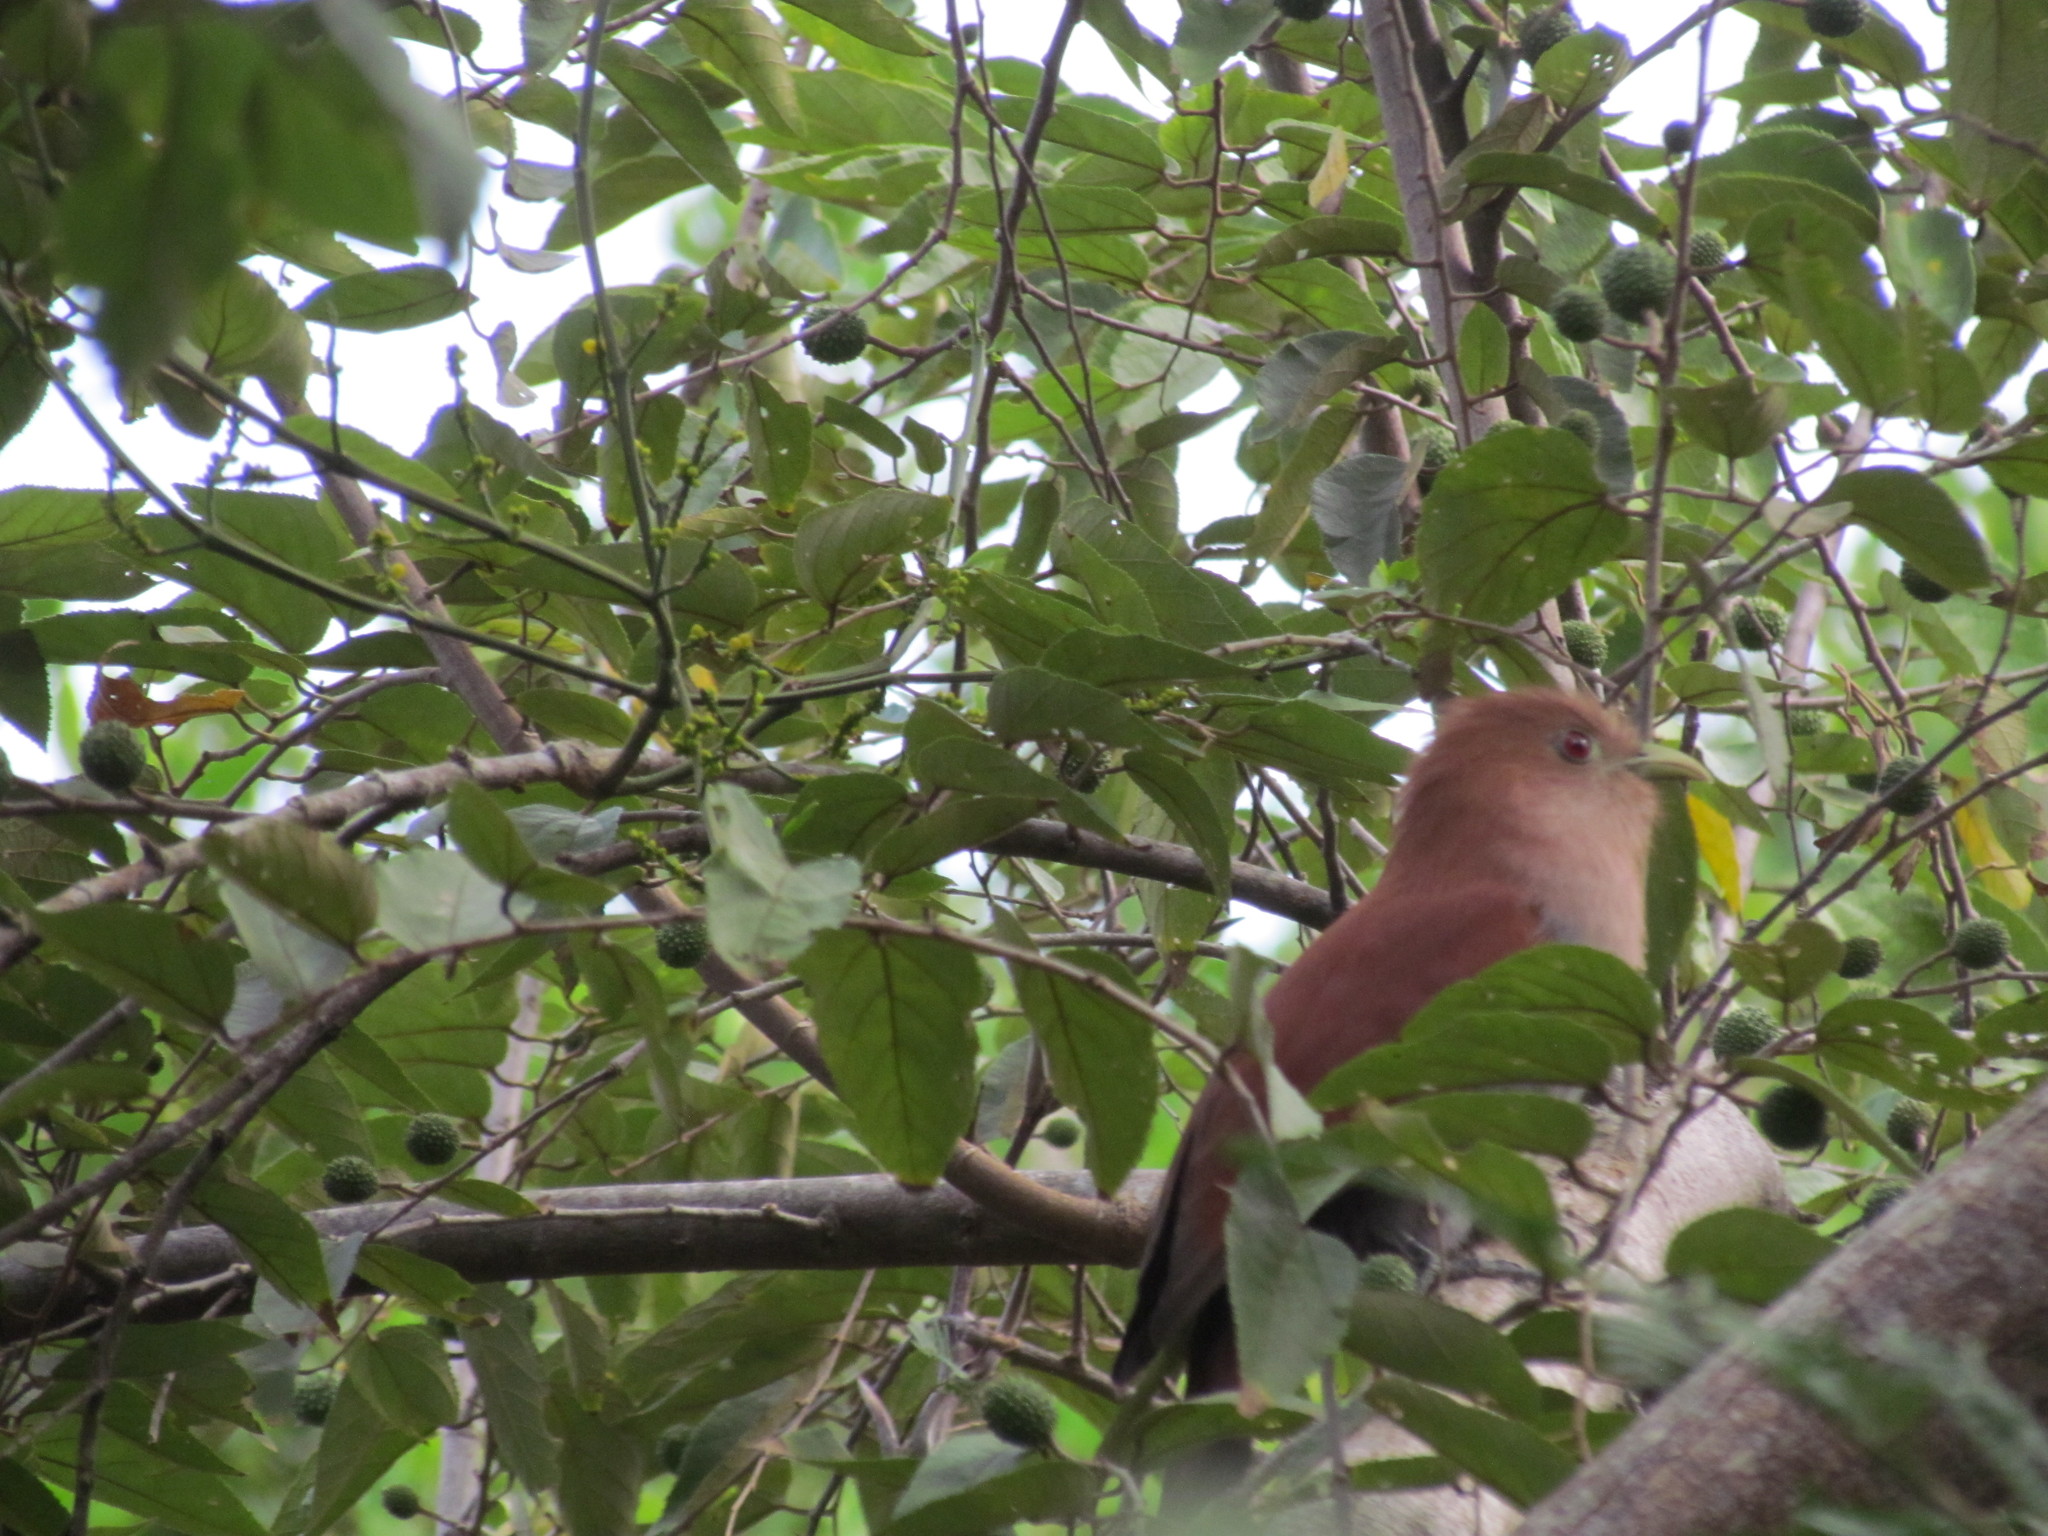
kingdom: Animalia
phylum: Chordata
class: Aves
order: Cuculiformes
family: Cuculidae
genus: Piaya
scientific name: Piaya cayana
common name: Squirrel cuckoo
